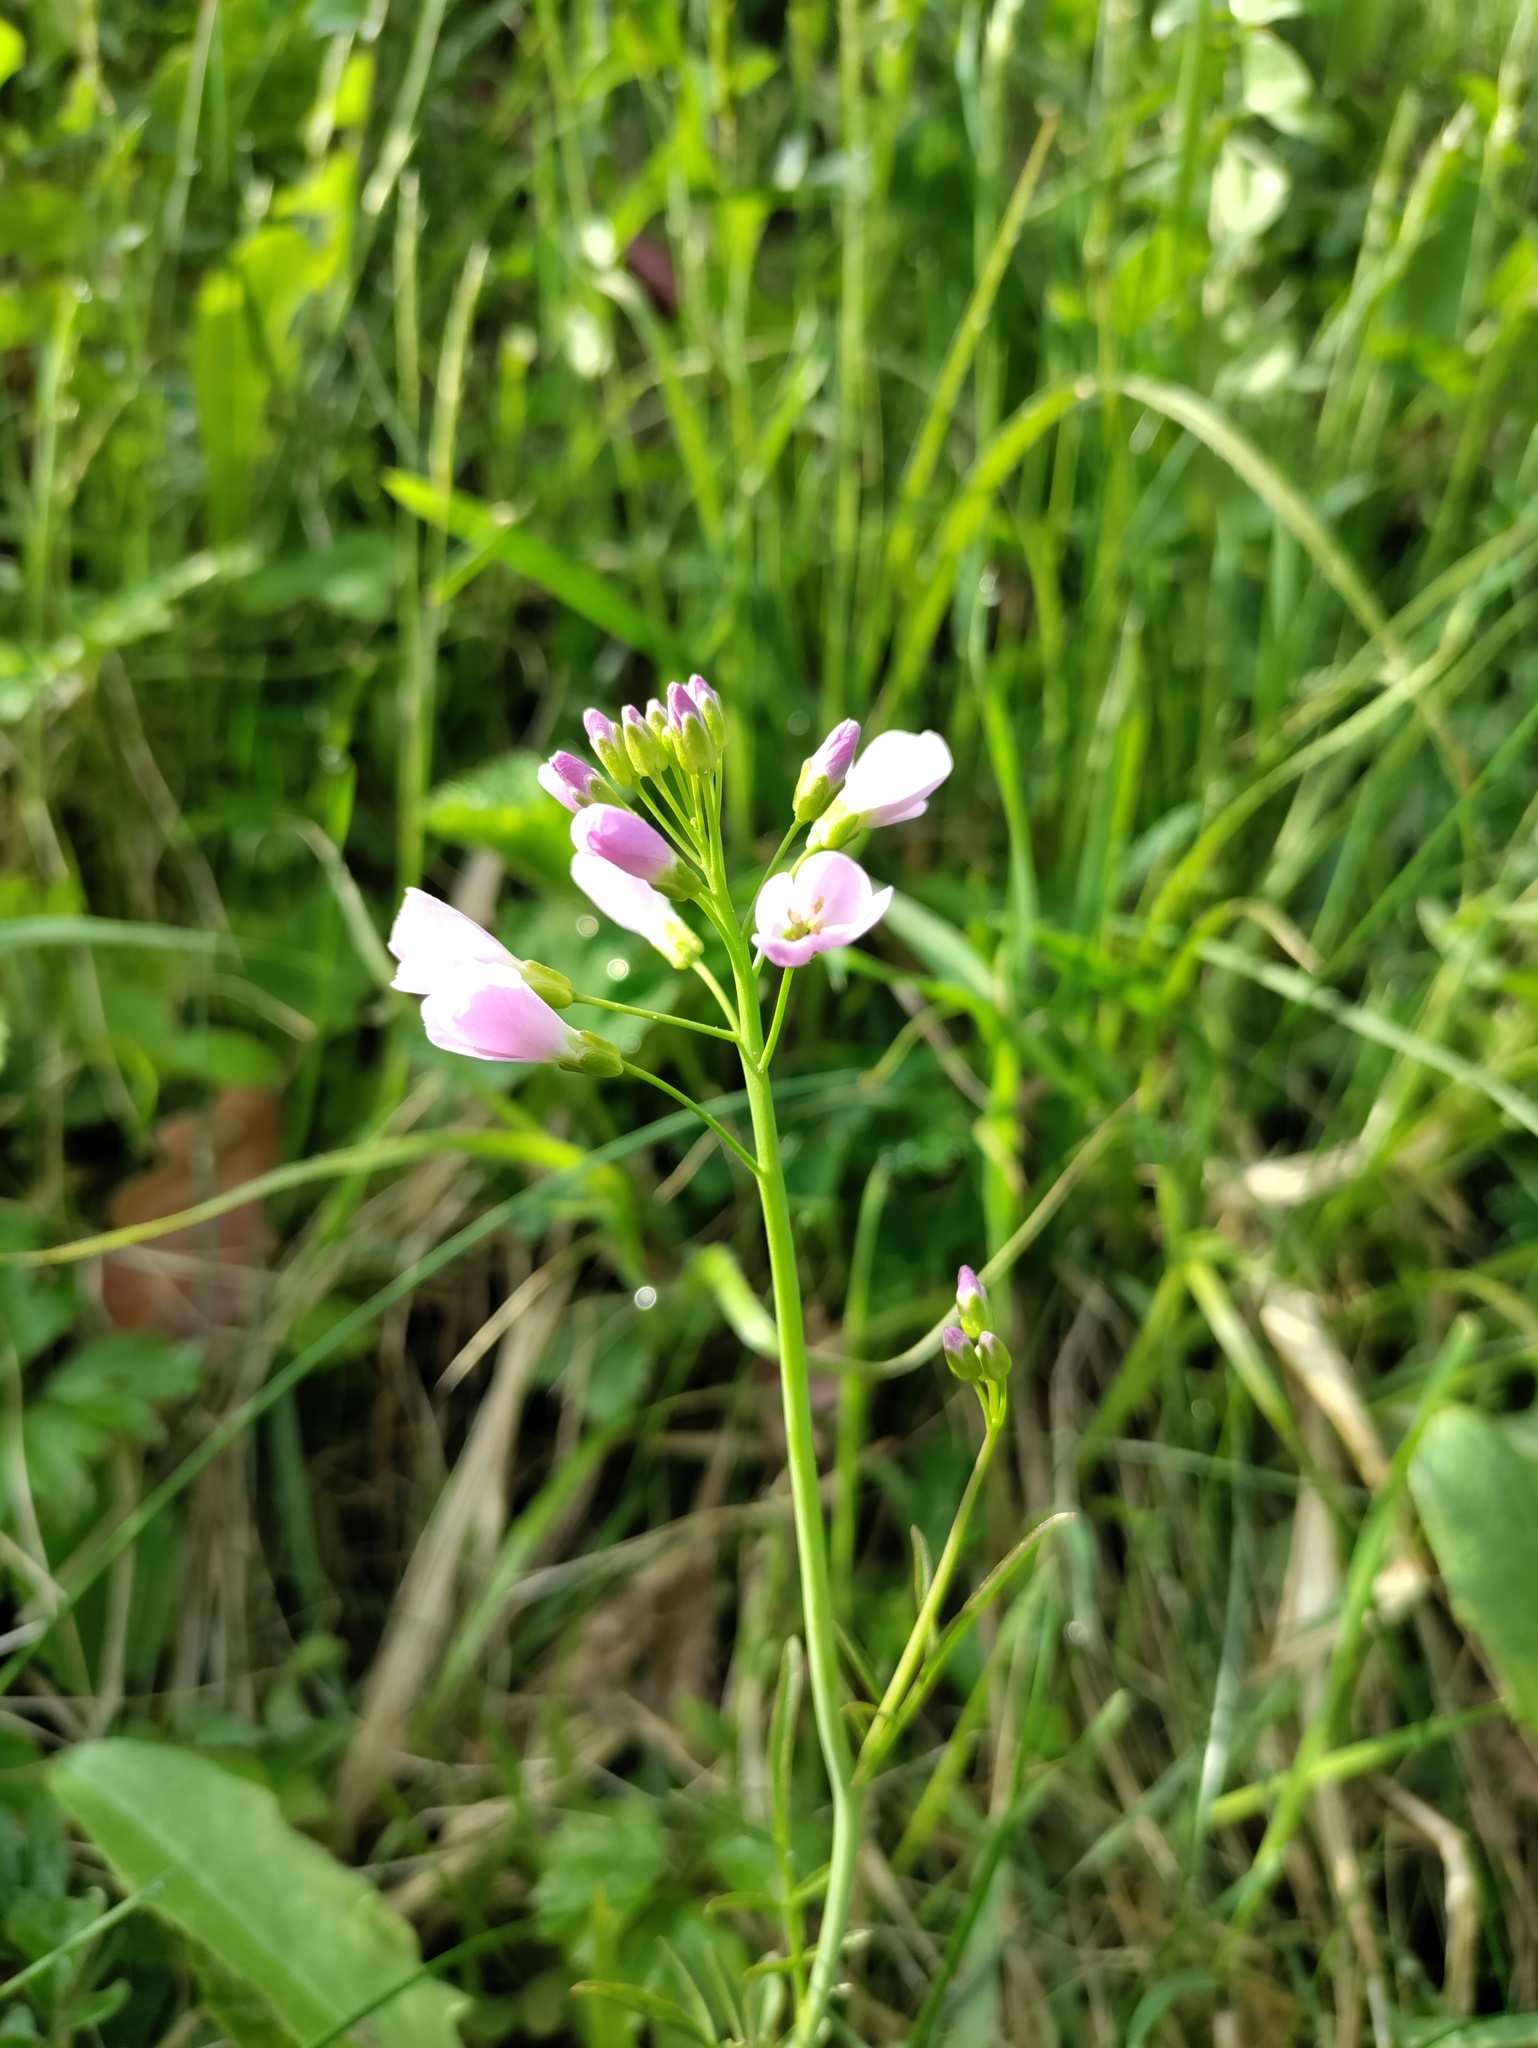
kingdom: Plantae
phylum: Tracheophyta
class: Magnoliopsida
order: Brassicales
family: Brassicaceae
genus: Cardamine
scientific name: Cardamine pratensis
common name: Cuckoo flower
